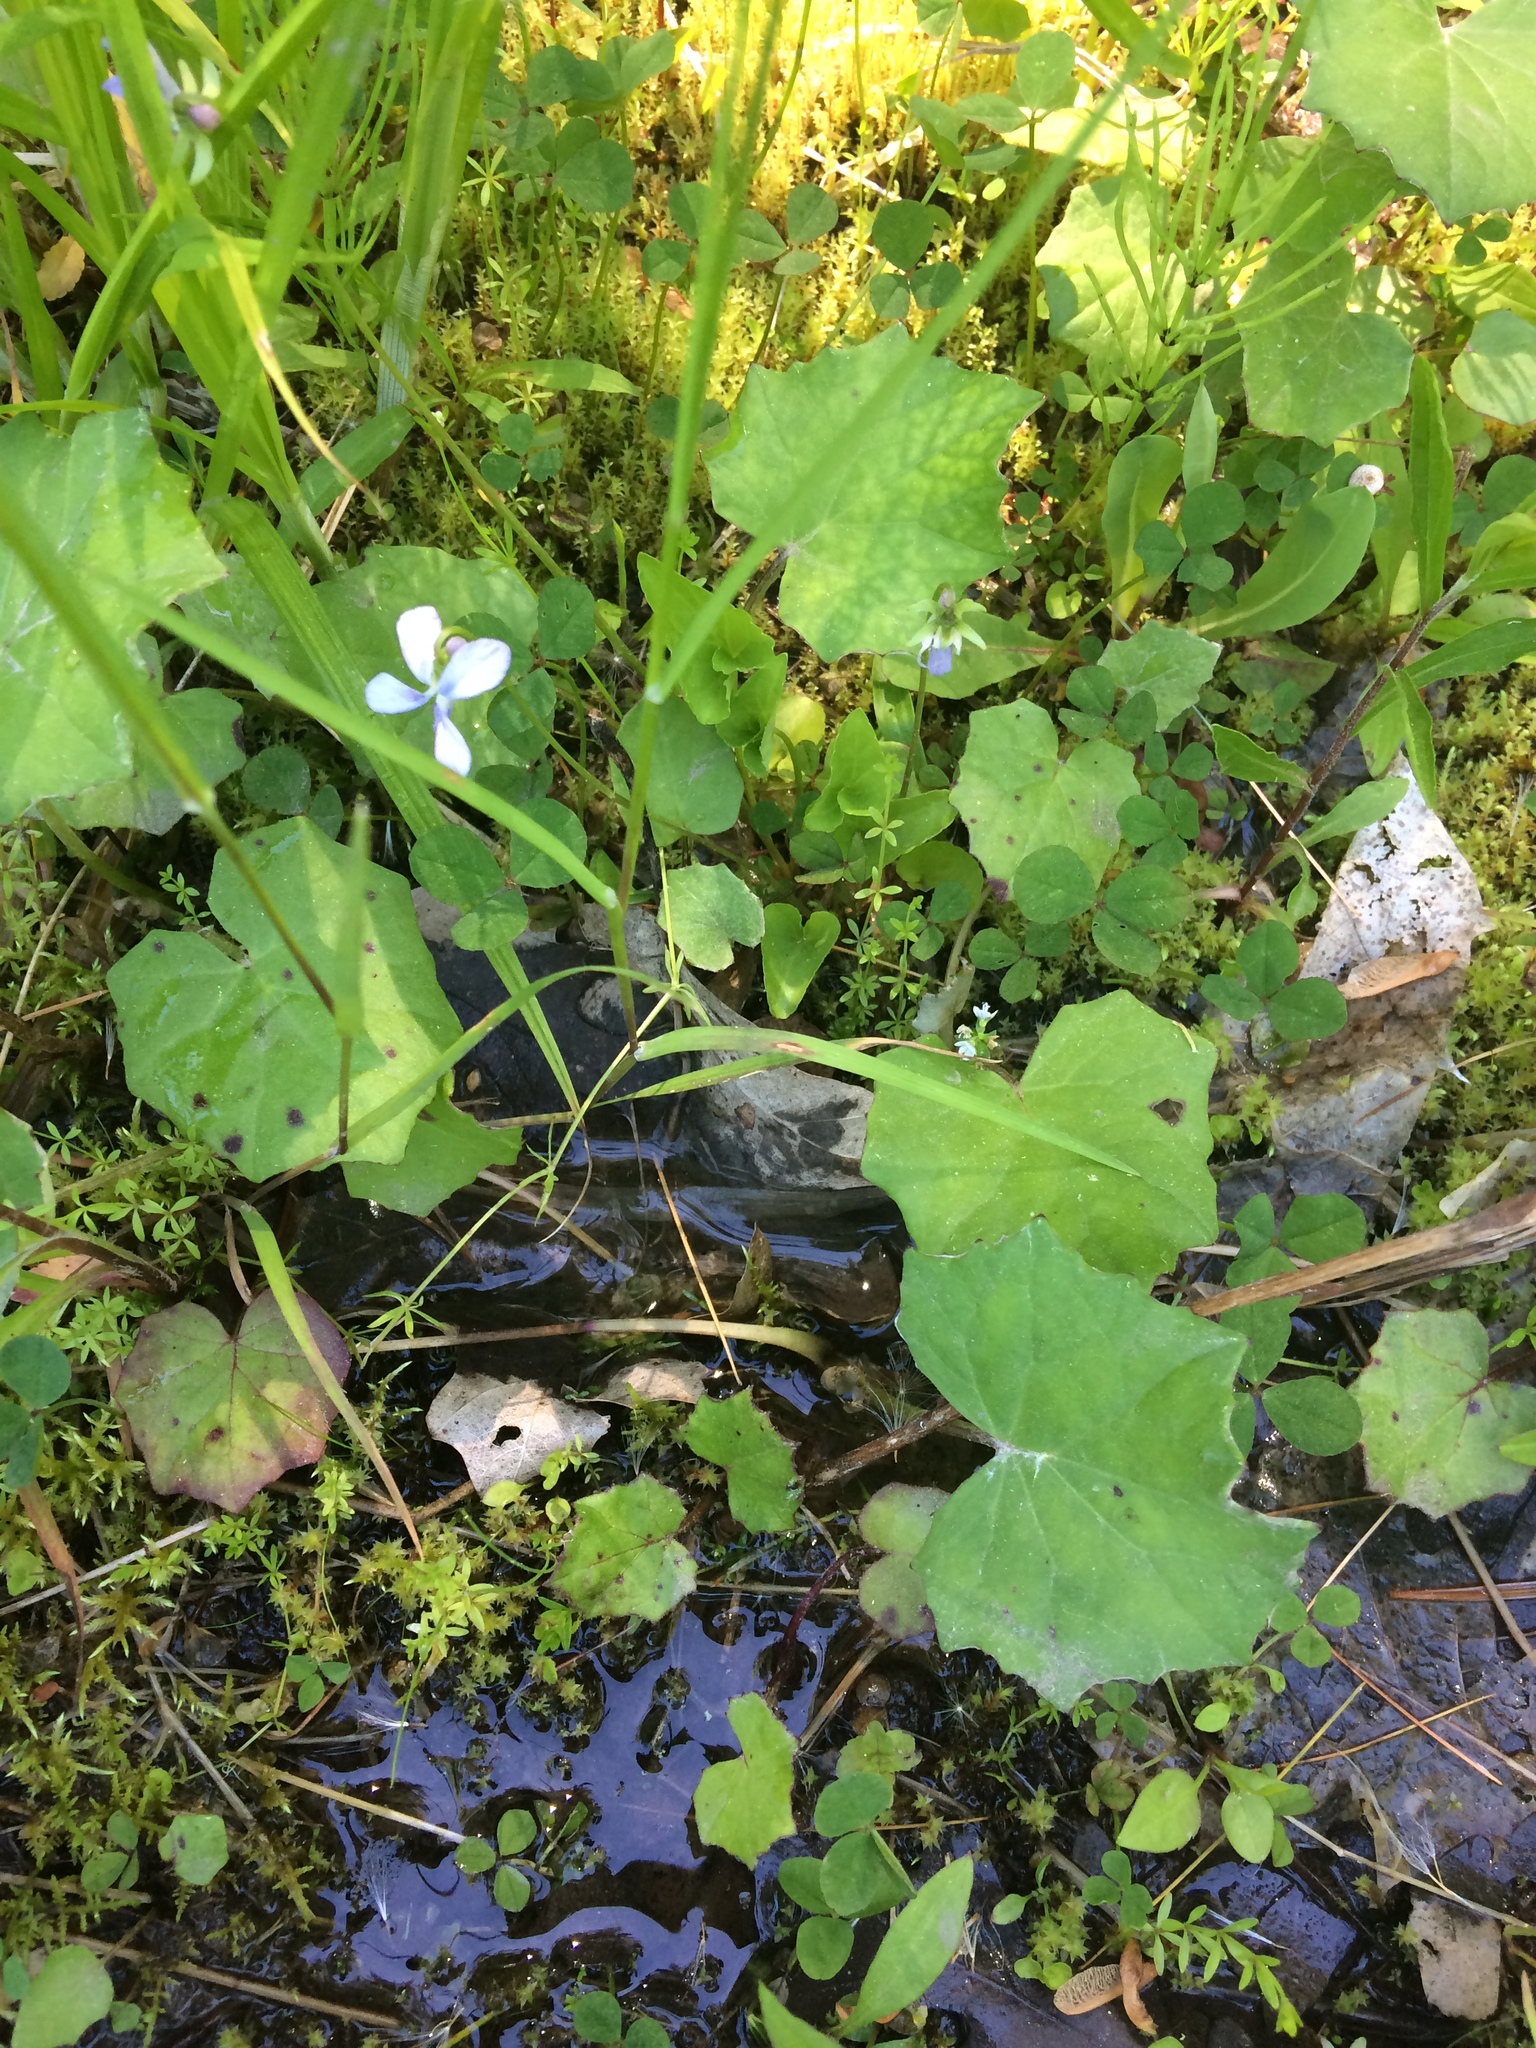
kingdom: Plantae
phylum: Tracheophyta
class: Magnoliopsida
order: Asterales
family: Asteraceae
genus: Tussilago
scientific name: Tussilago farfara
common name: Coltsfoot
